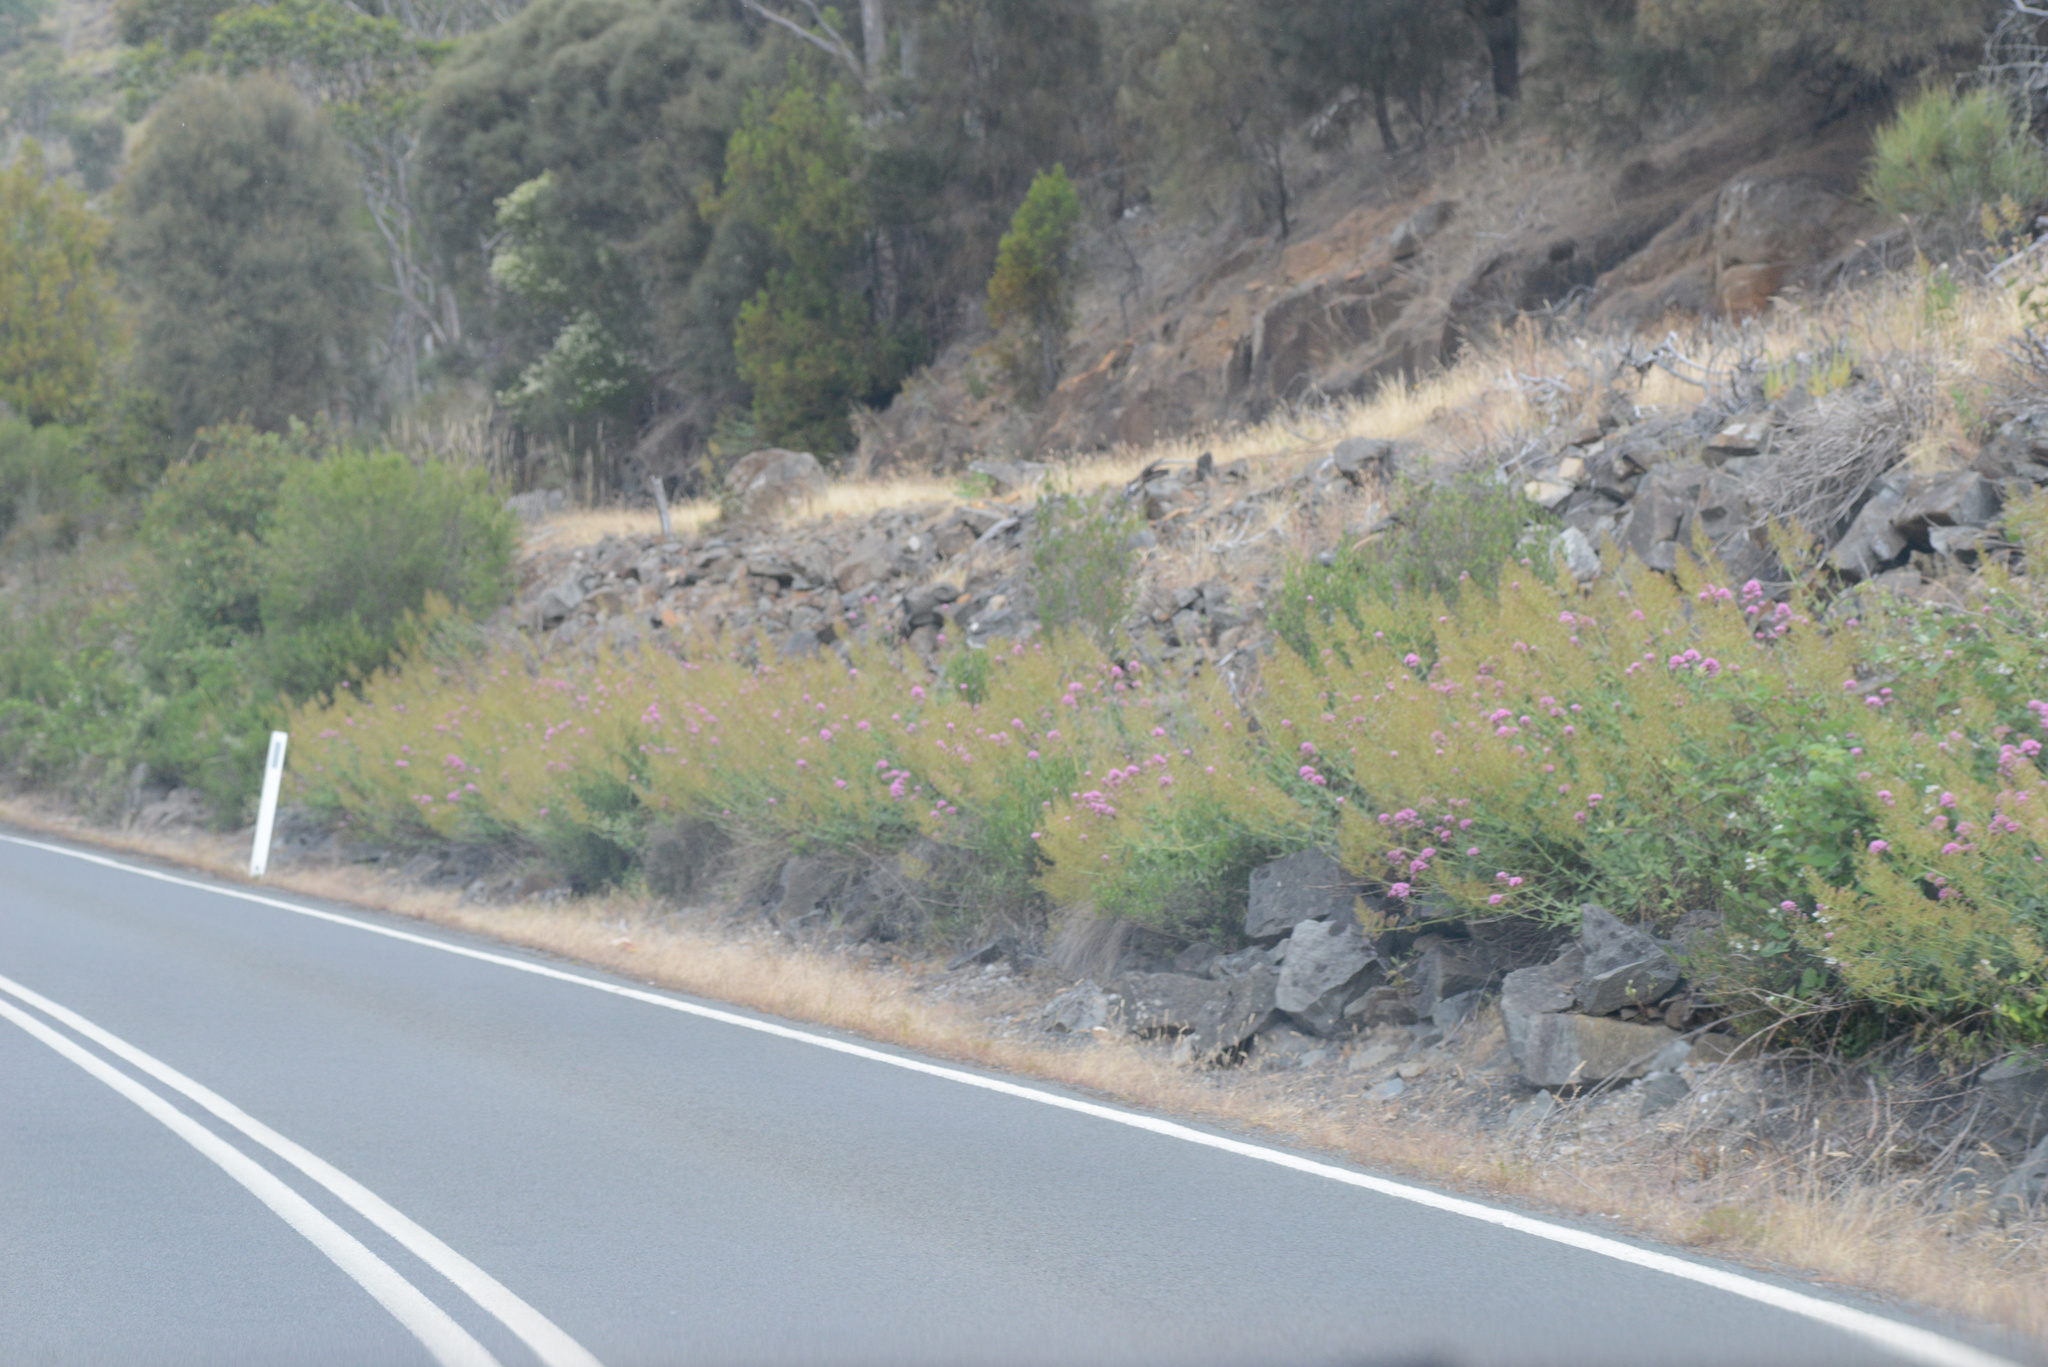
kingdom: Plantae
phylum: Tracheophyta
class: Magnoliopsida
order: Dipsacales
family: Caprifoliaceae
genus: Centranthus
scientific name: Centranthus ruber
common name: Red valerian
